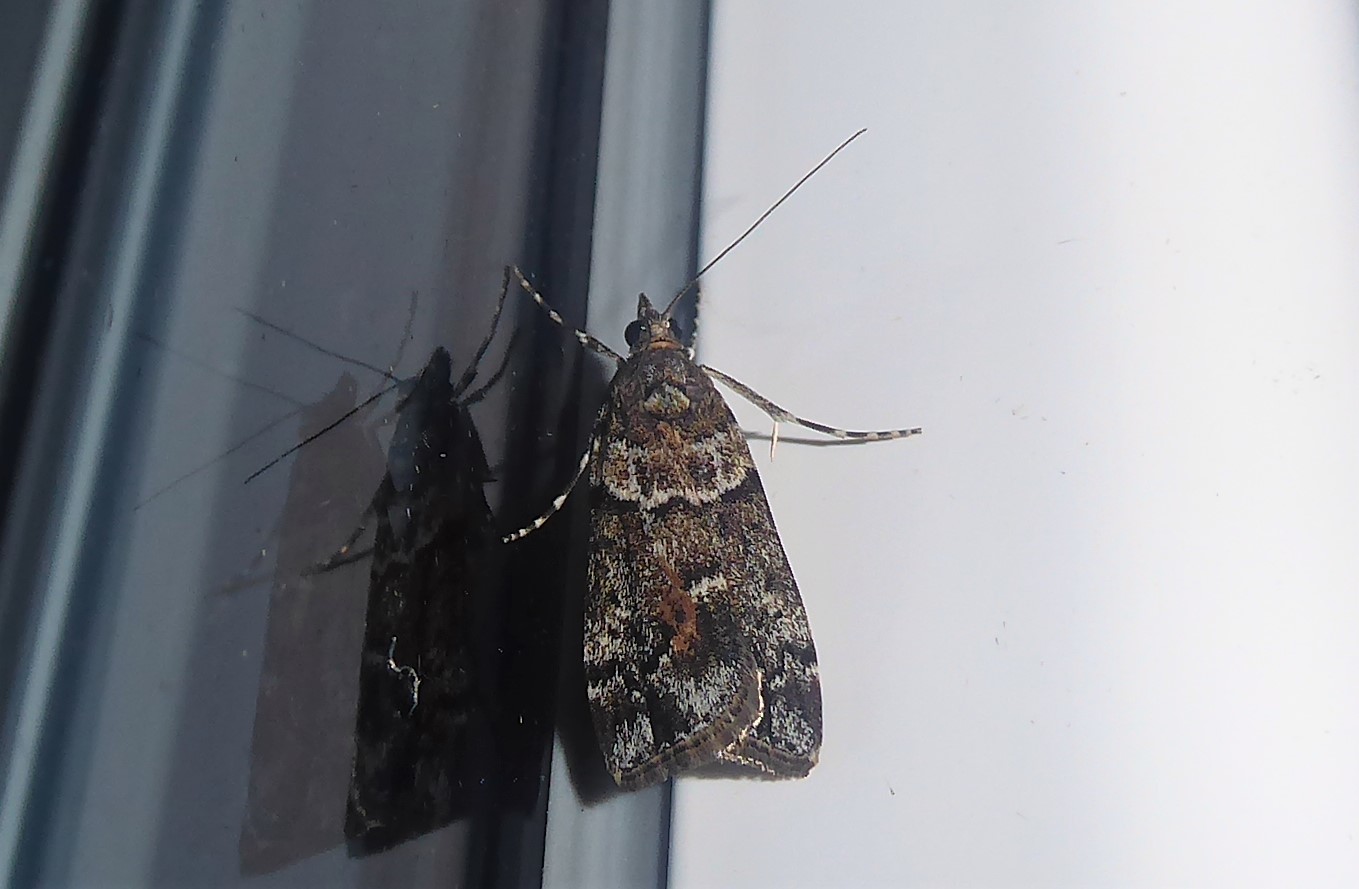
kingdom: Animalia
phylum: Arthropoda
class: Insecta
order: Lepidoptera
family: Crambidae
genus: Eudonia
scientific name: Eudonia submarginalis
